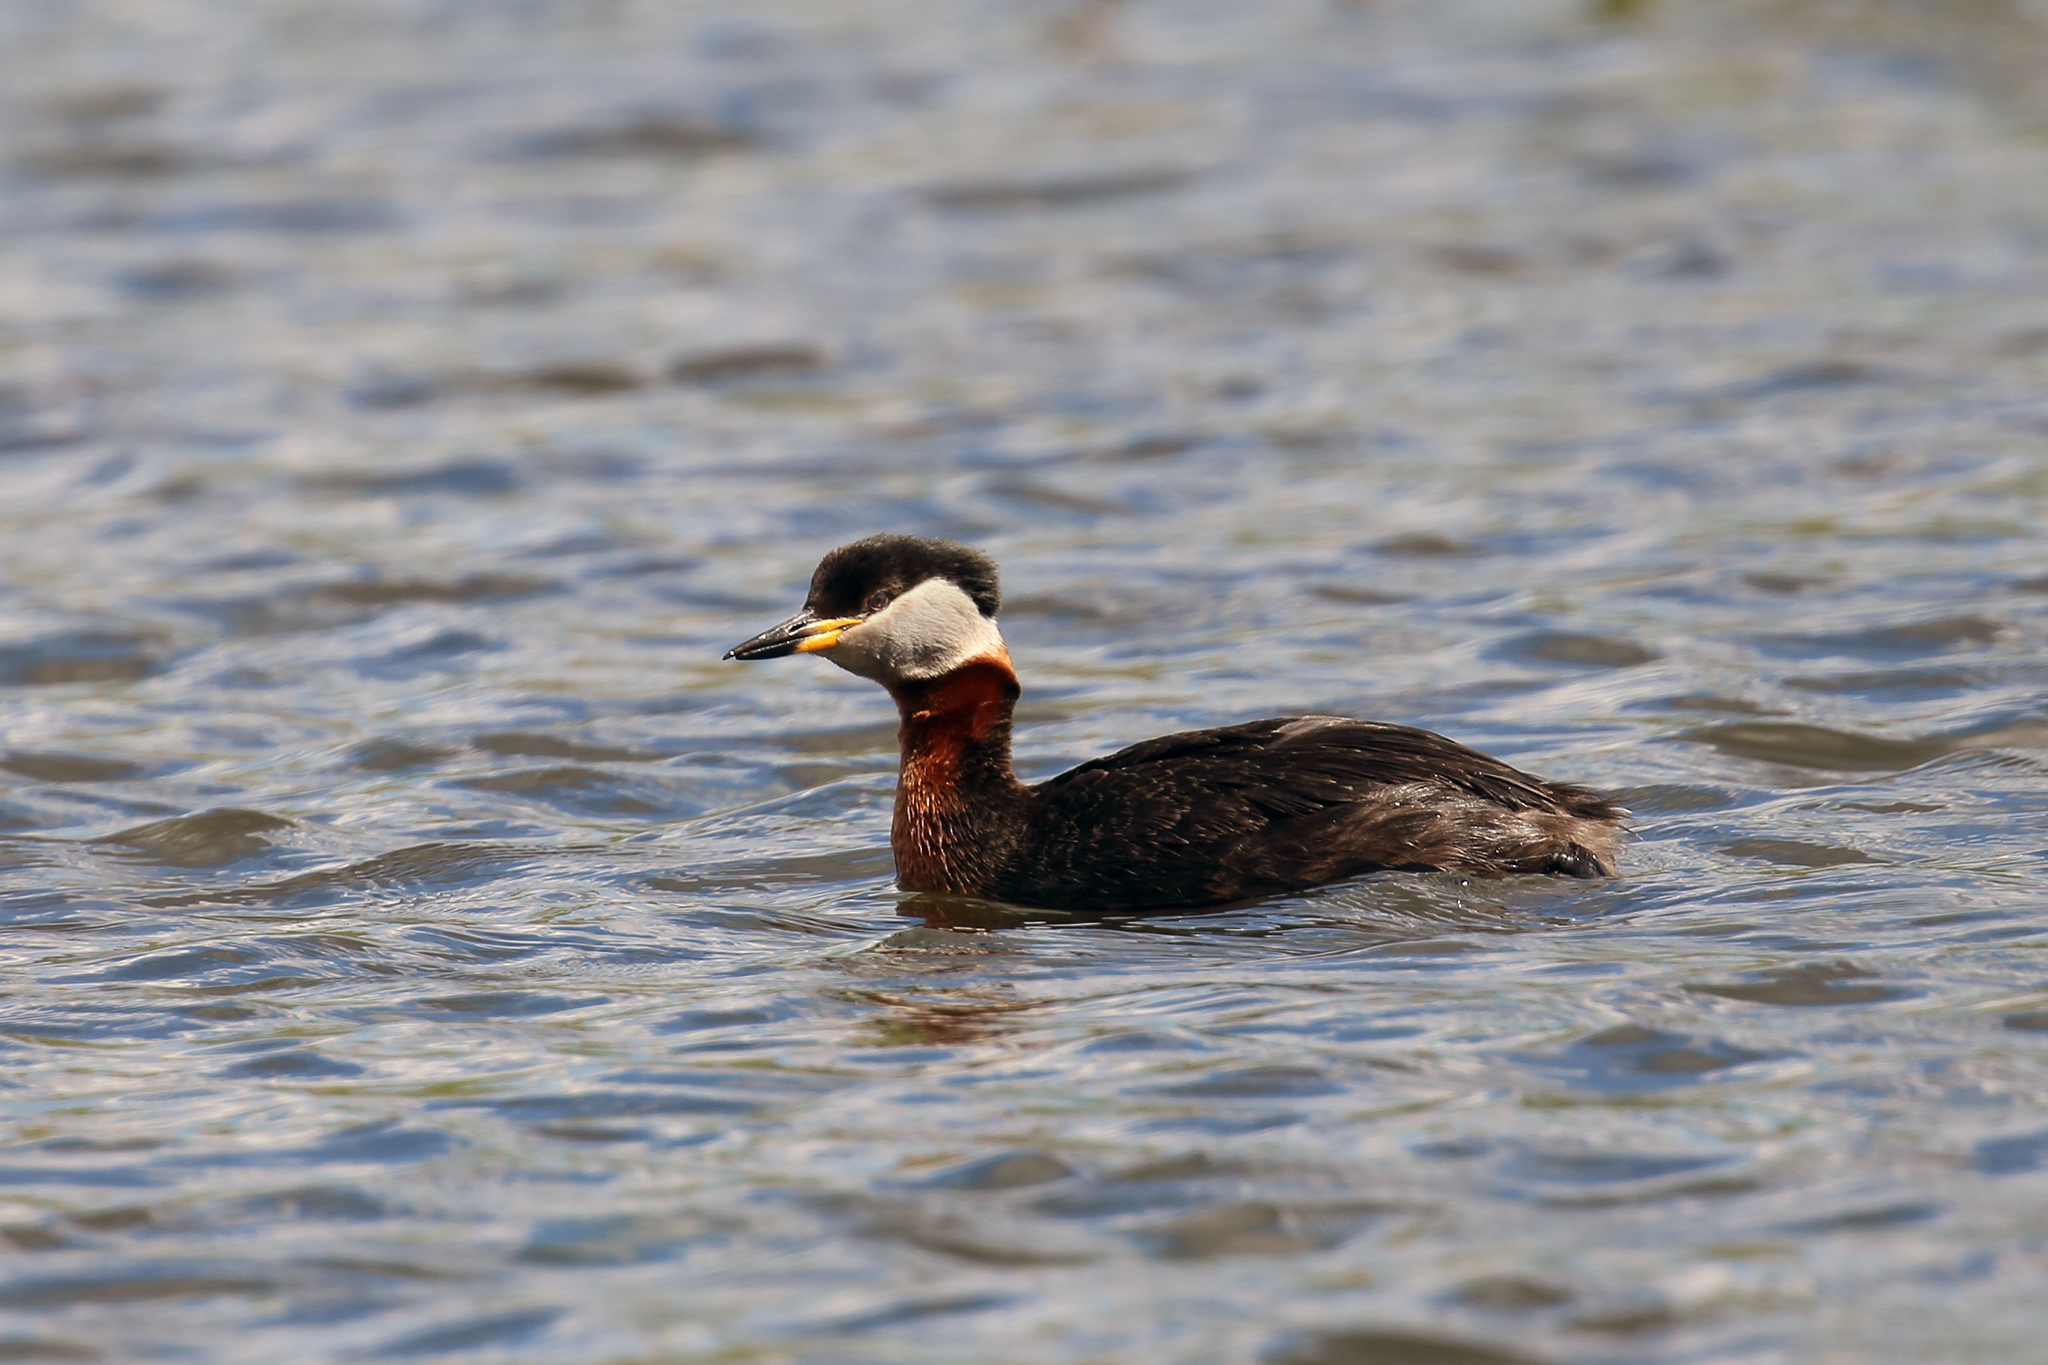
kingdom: Animalia
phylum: Chordata
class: Aves
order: Podicipediformes
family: Podicipedidae
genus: Podiceps
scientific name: Podiceps grisegena
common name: Red-necked grebe
